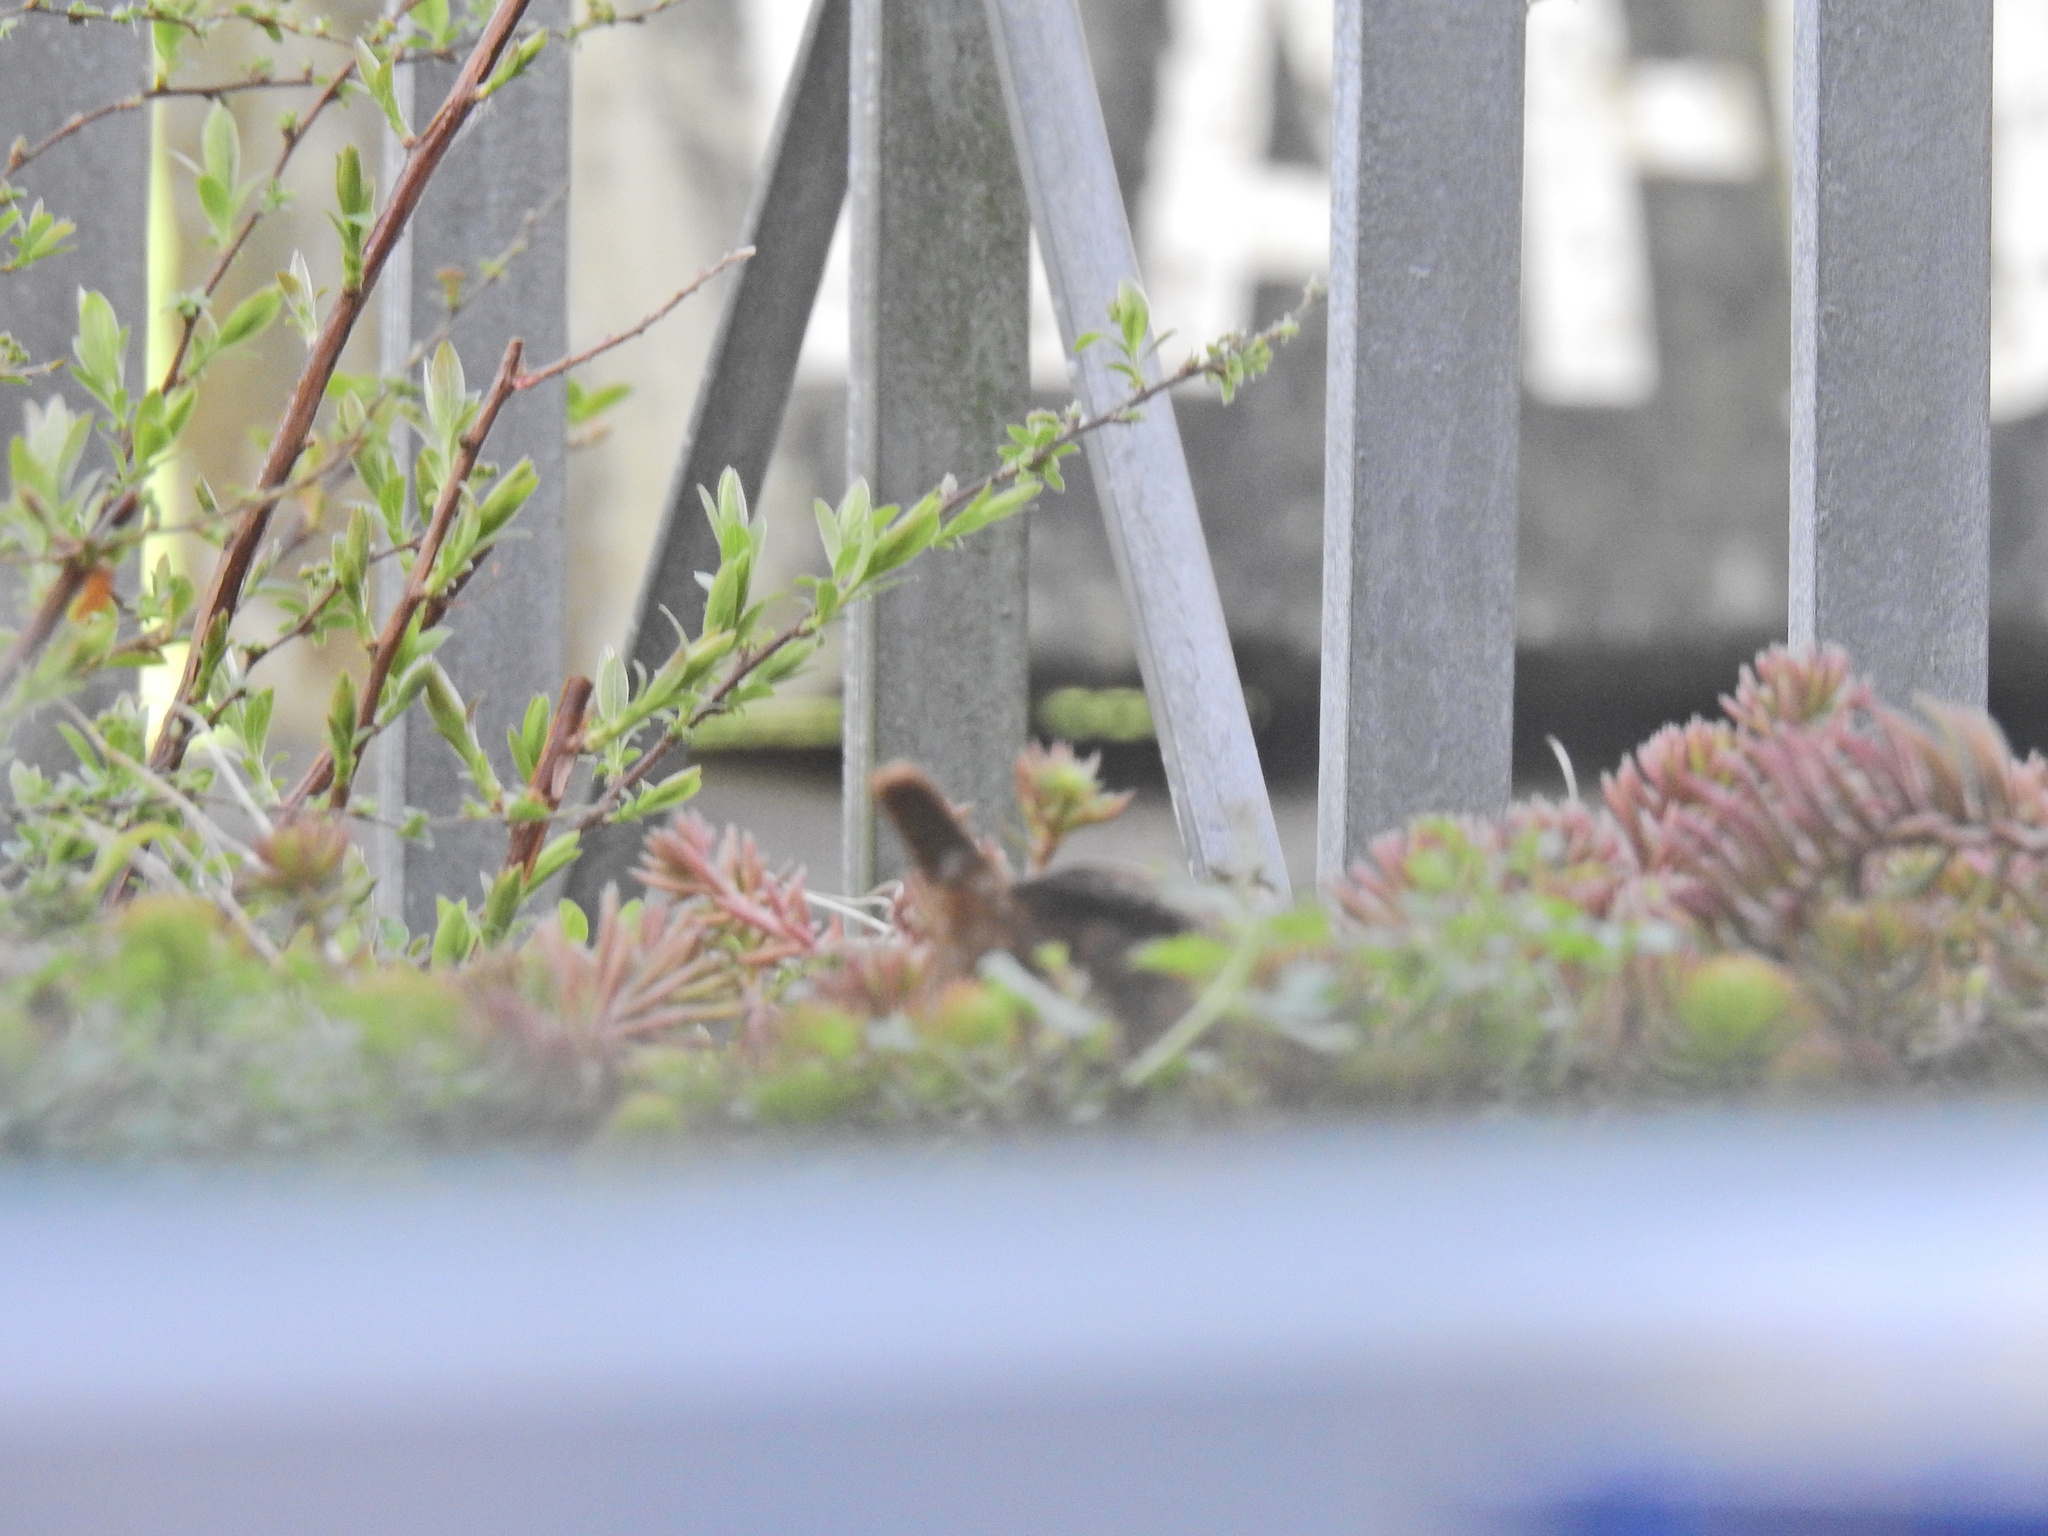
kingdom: Animalia
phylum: Chordata
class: Aves
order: Passeriformes
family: Troglodytidae
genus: Troglodytes
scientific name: Troglodytes troglodytes
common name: Eurasian wren
